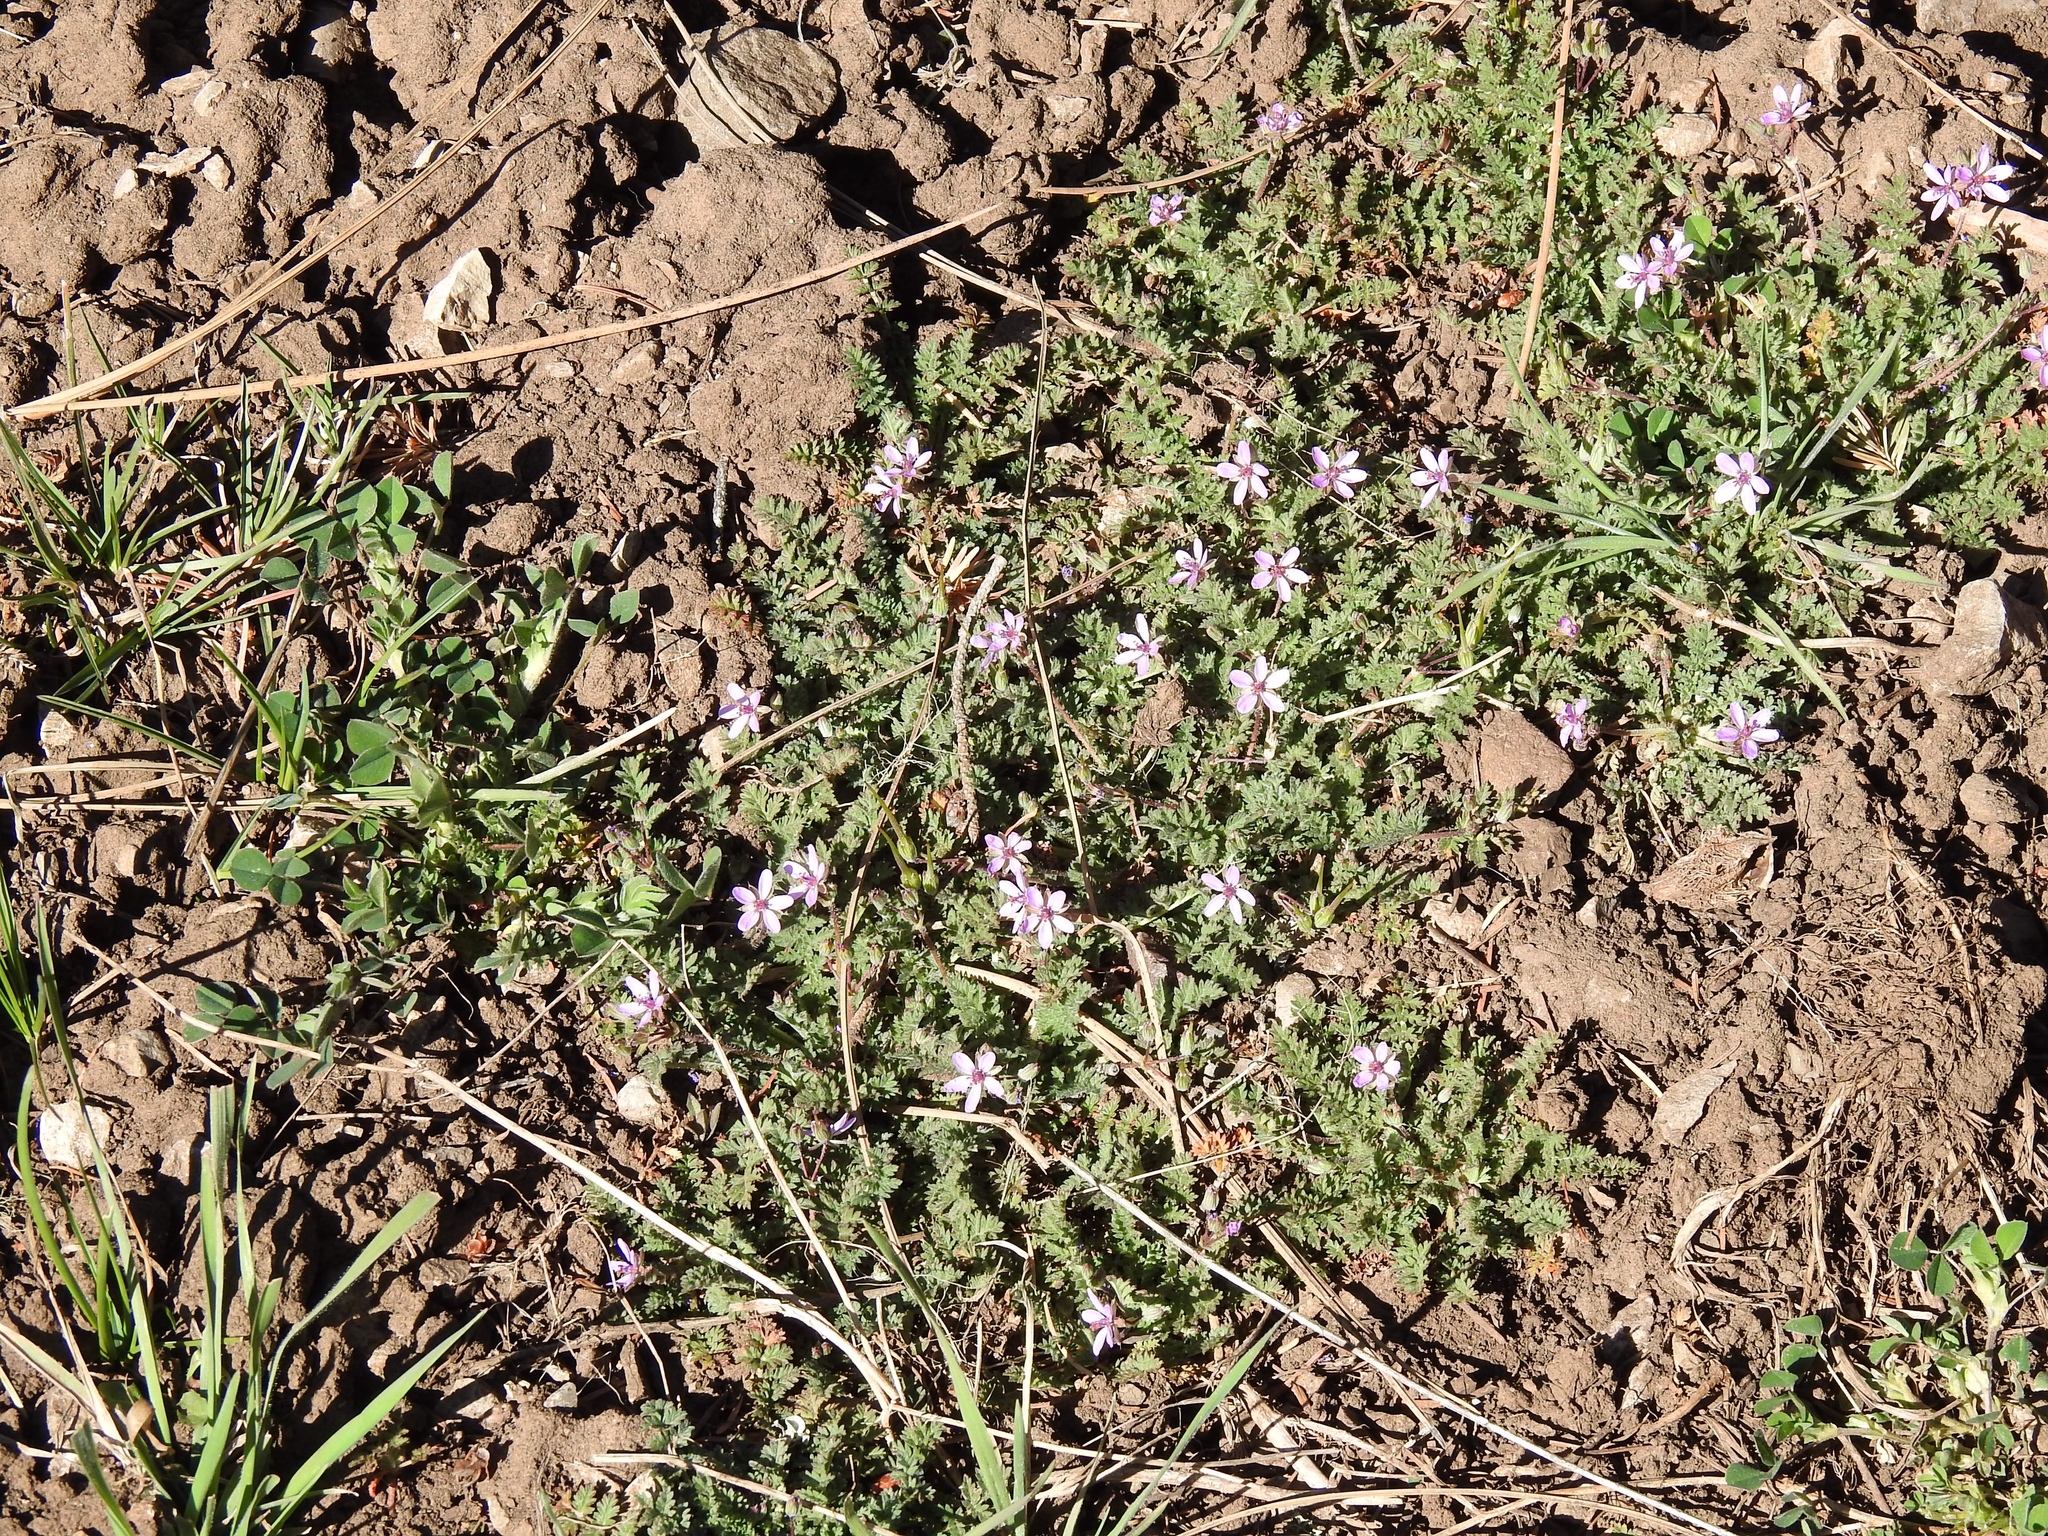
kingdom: Plantae
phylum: Tracheophyta
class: Magnoliopsida
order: Geraniales
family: Geraniaceae
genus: Erodium
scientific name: Erodium cicutarium
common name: Common stork's-bill
